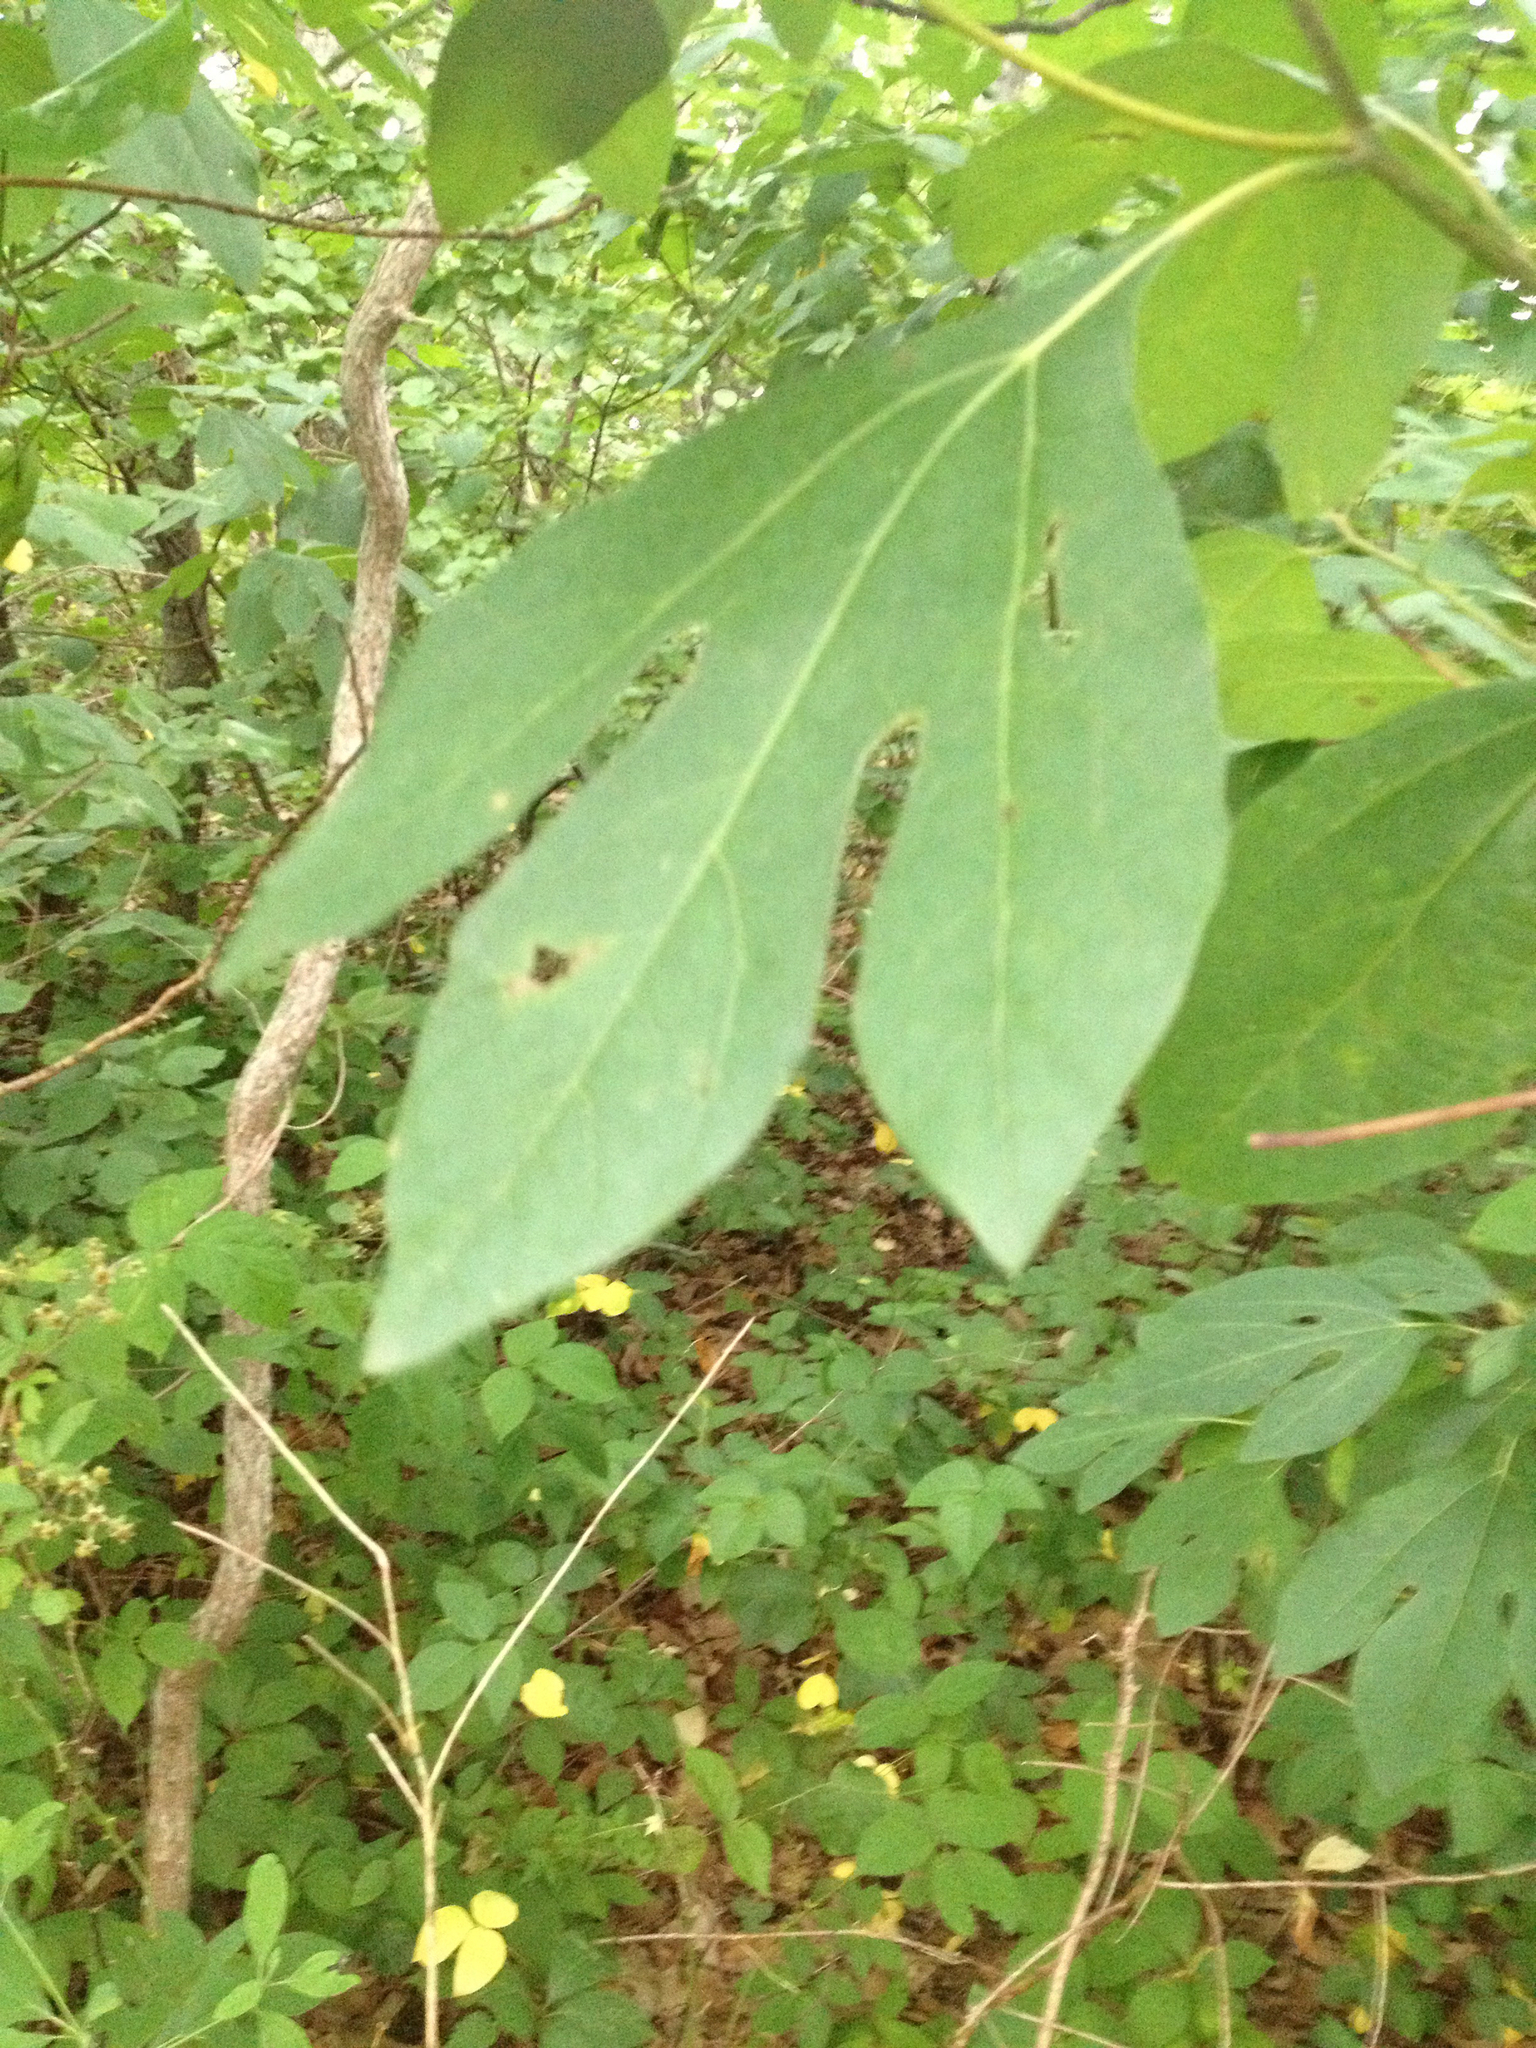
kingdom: Plantae
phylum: Tracheophyta
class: Magnoliopsida
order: Laurales
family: Lauraceae
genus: Sassafras
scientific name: Sassafras albidum
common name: Sassafras
